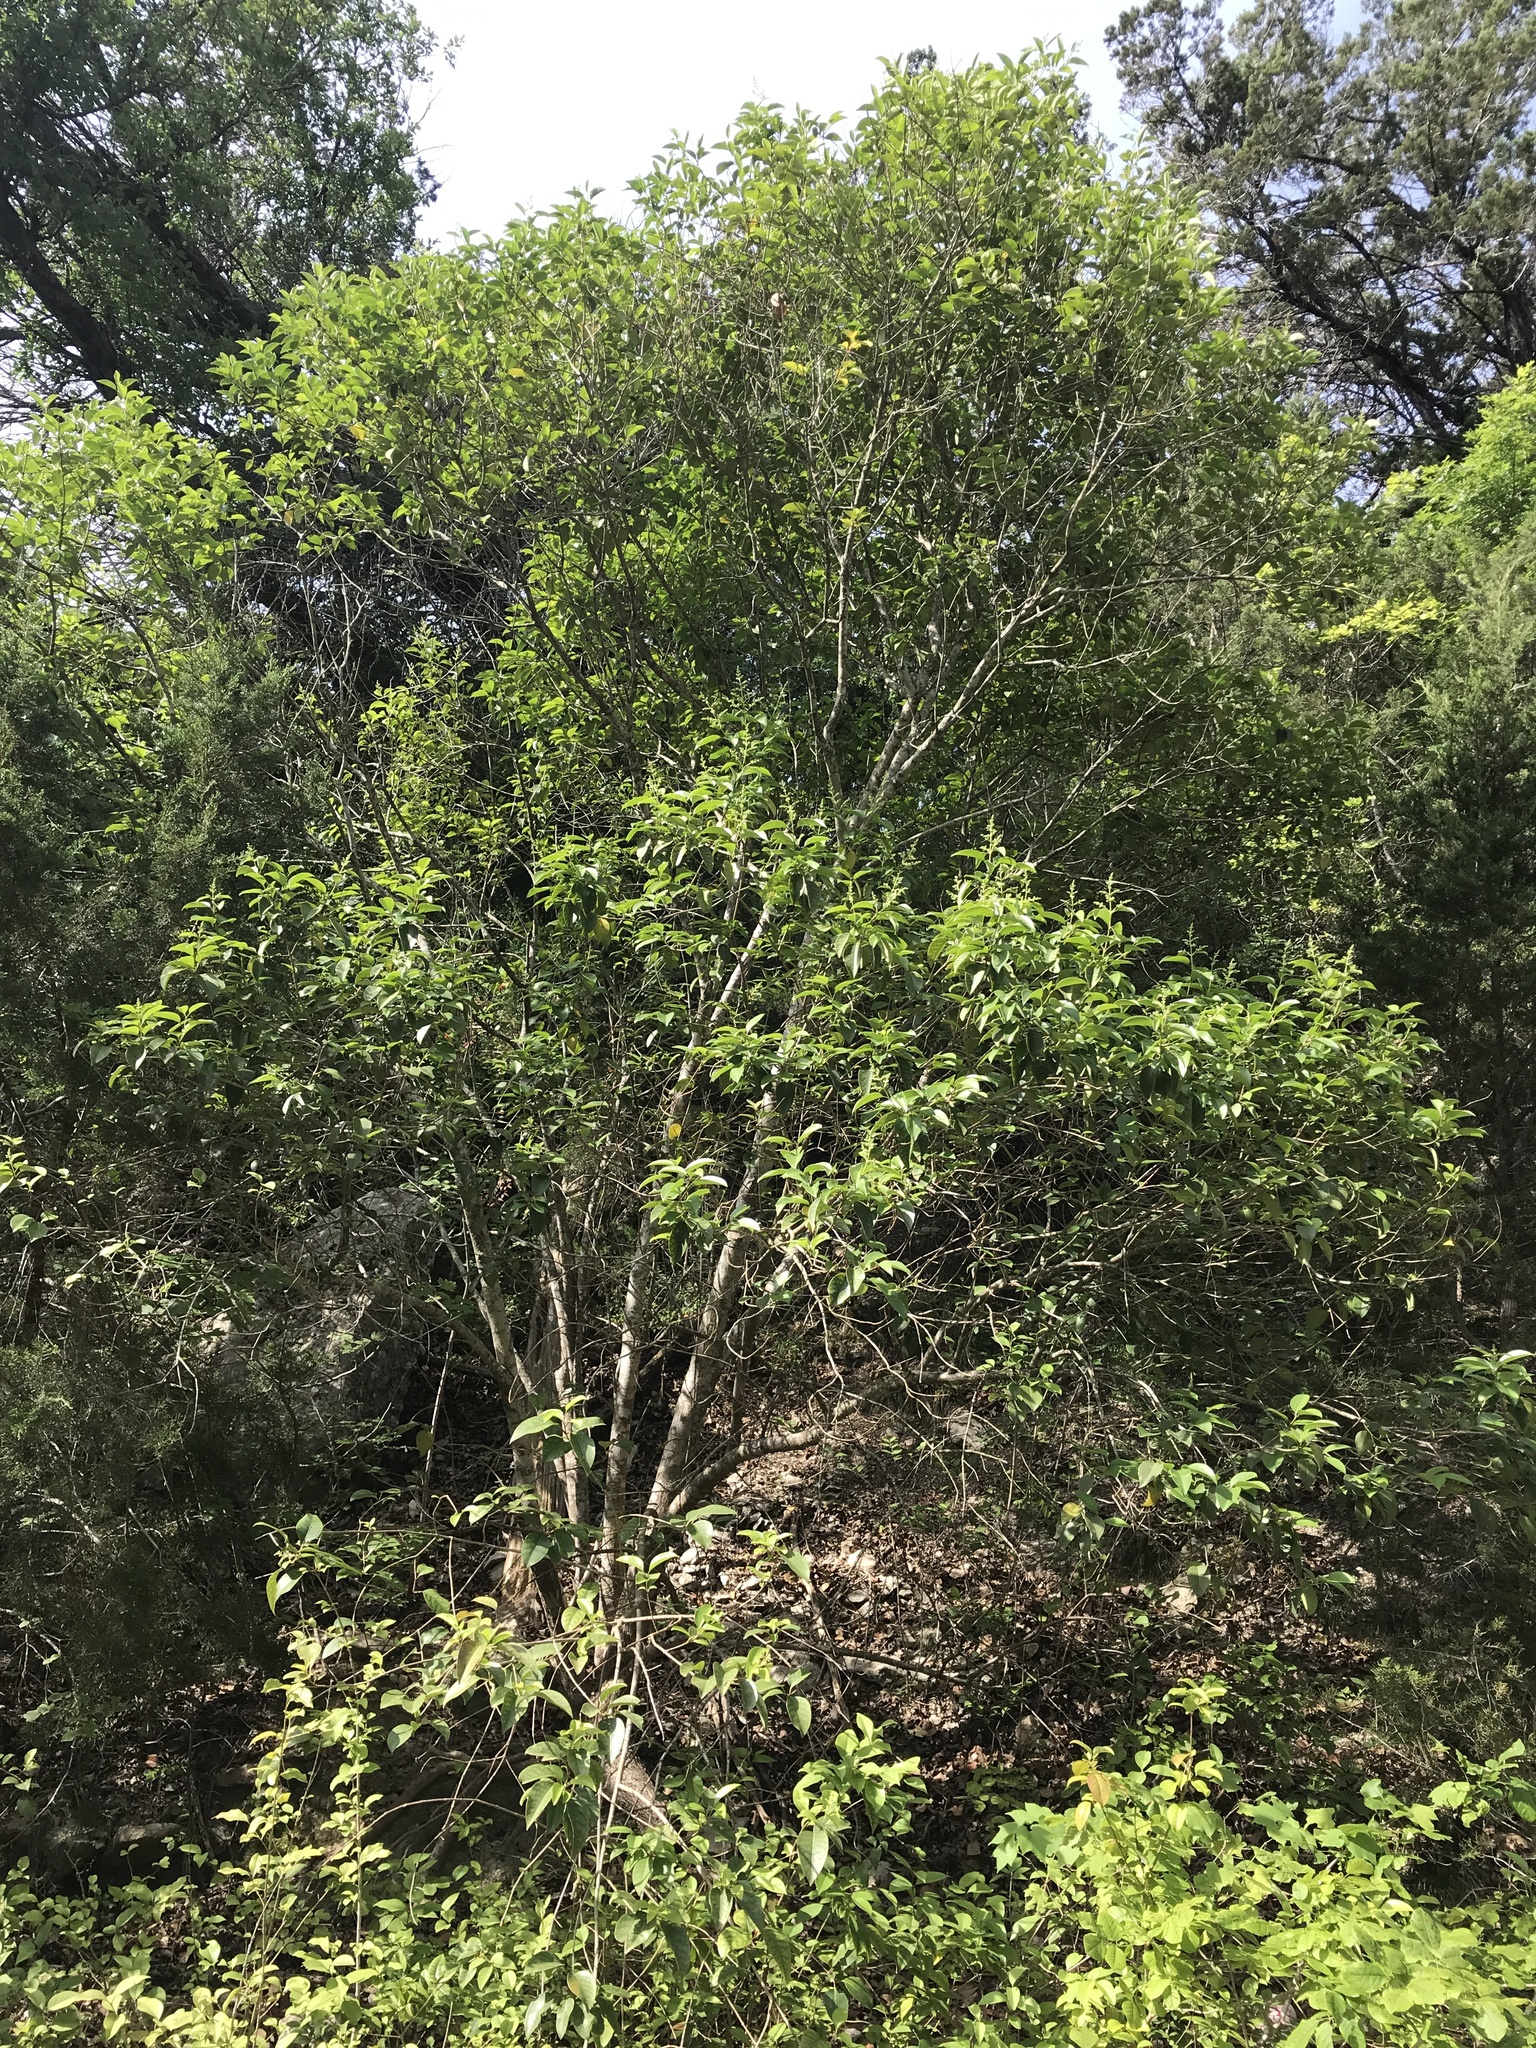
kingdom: Plantae
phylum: Tracheophyta
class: Magnoliopsida
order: Lamiales
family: Oleaceae
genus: Ligustrum
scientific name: Ligustrum lucidum
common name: Glossy privet
